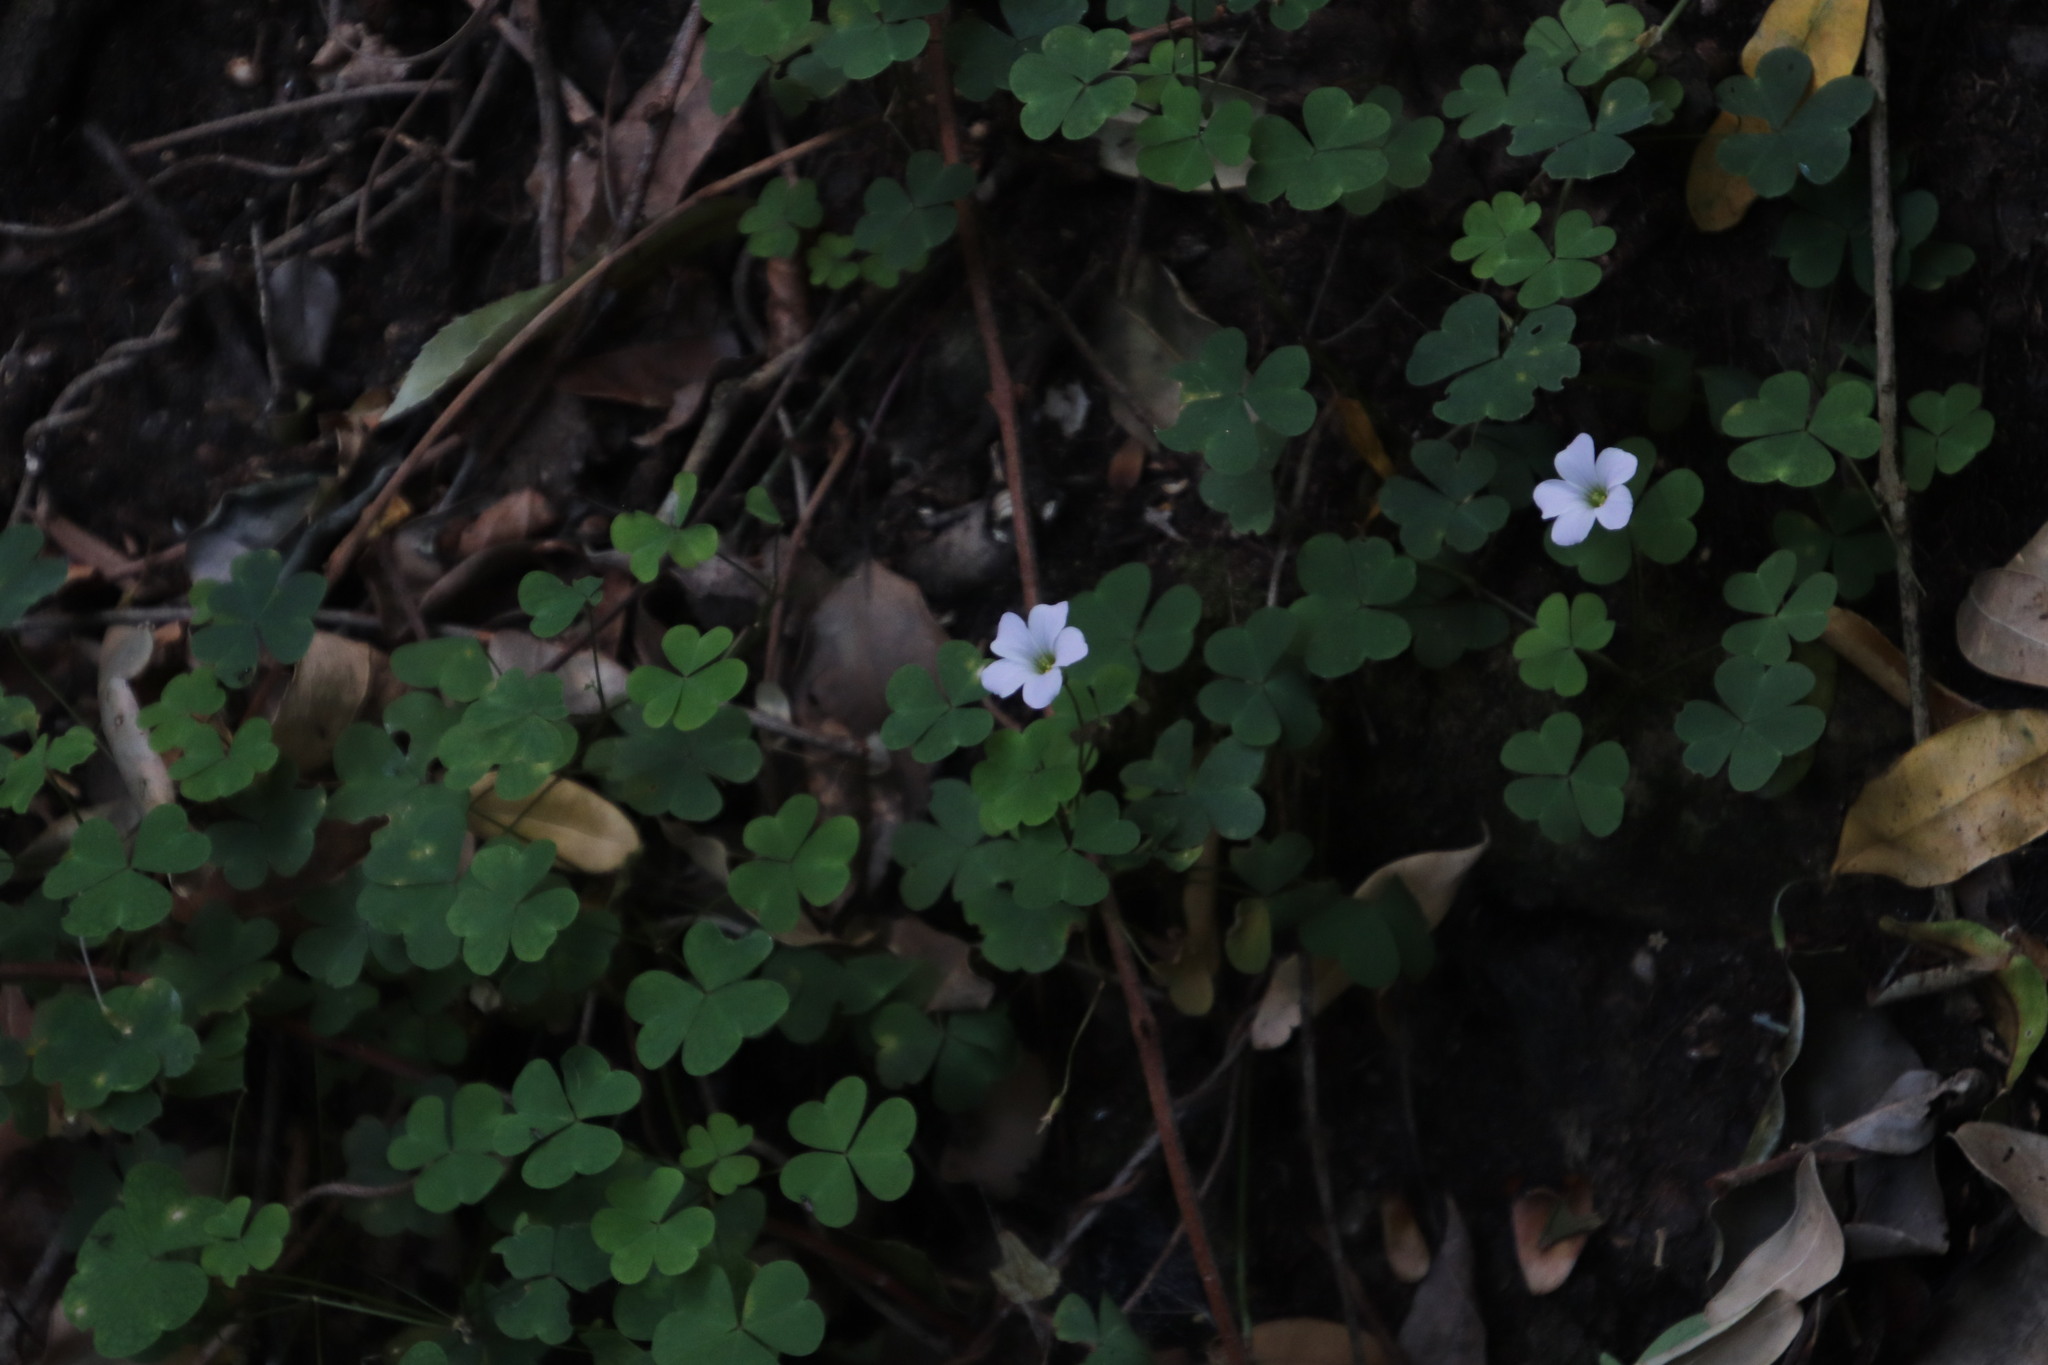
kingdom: Plantae
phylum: Tracheophyta
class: Magnoliopsida
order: Oxalidales
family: Oxalidaceae
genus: Oxalis
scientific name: Oxalis incarnata
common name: Pale pink-sorrel
